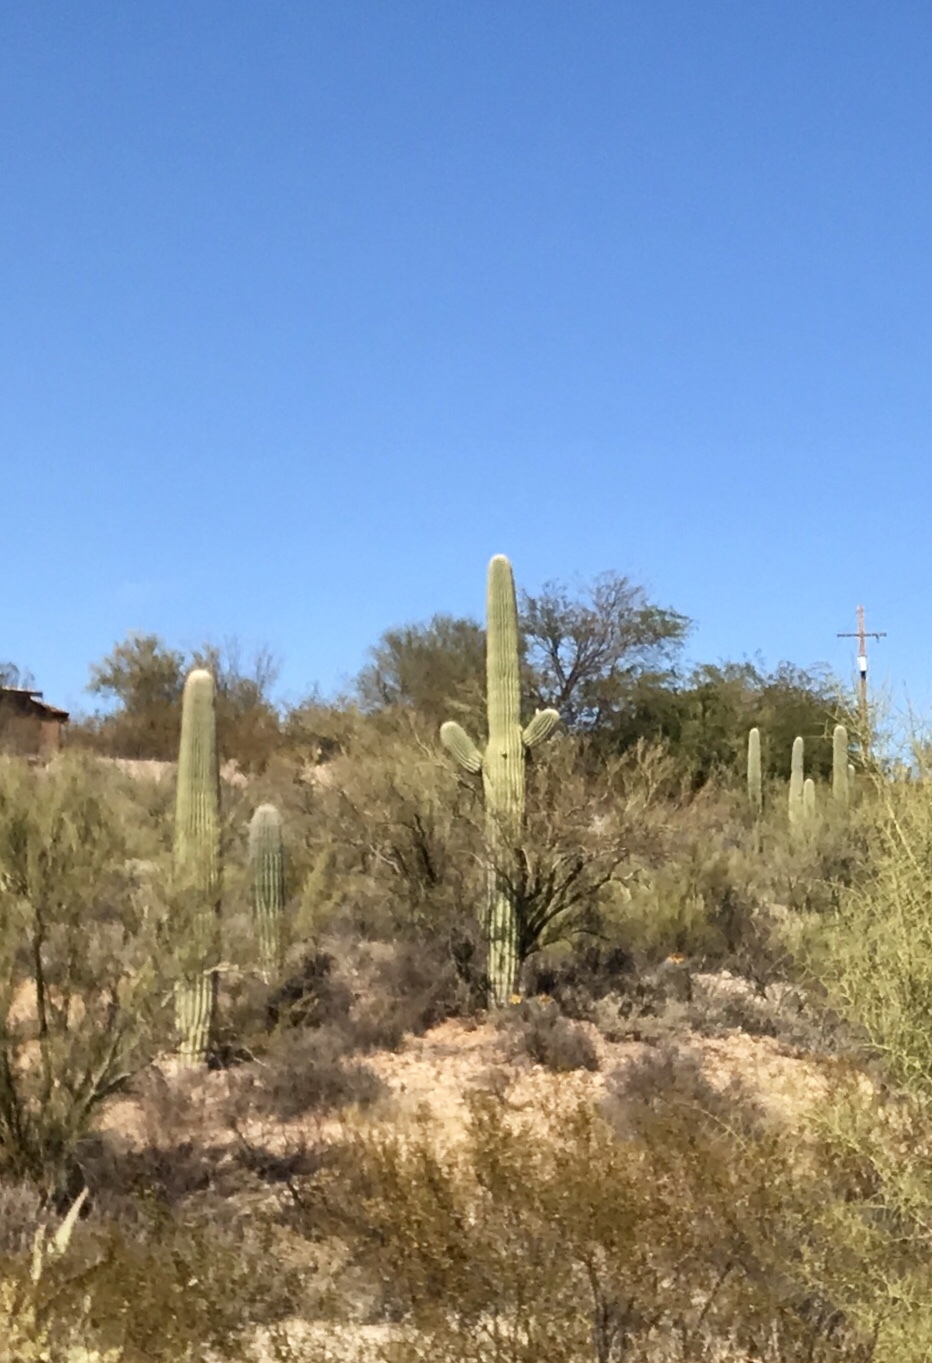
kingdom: Plantae
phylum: Tracheophyta
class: Magnoliopsida
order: Caryophyllales
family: Cactaceae
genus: Carnegiea
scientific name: Carnegiea gigantea
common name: Saguaro
